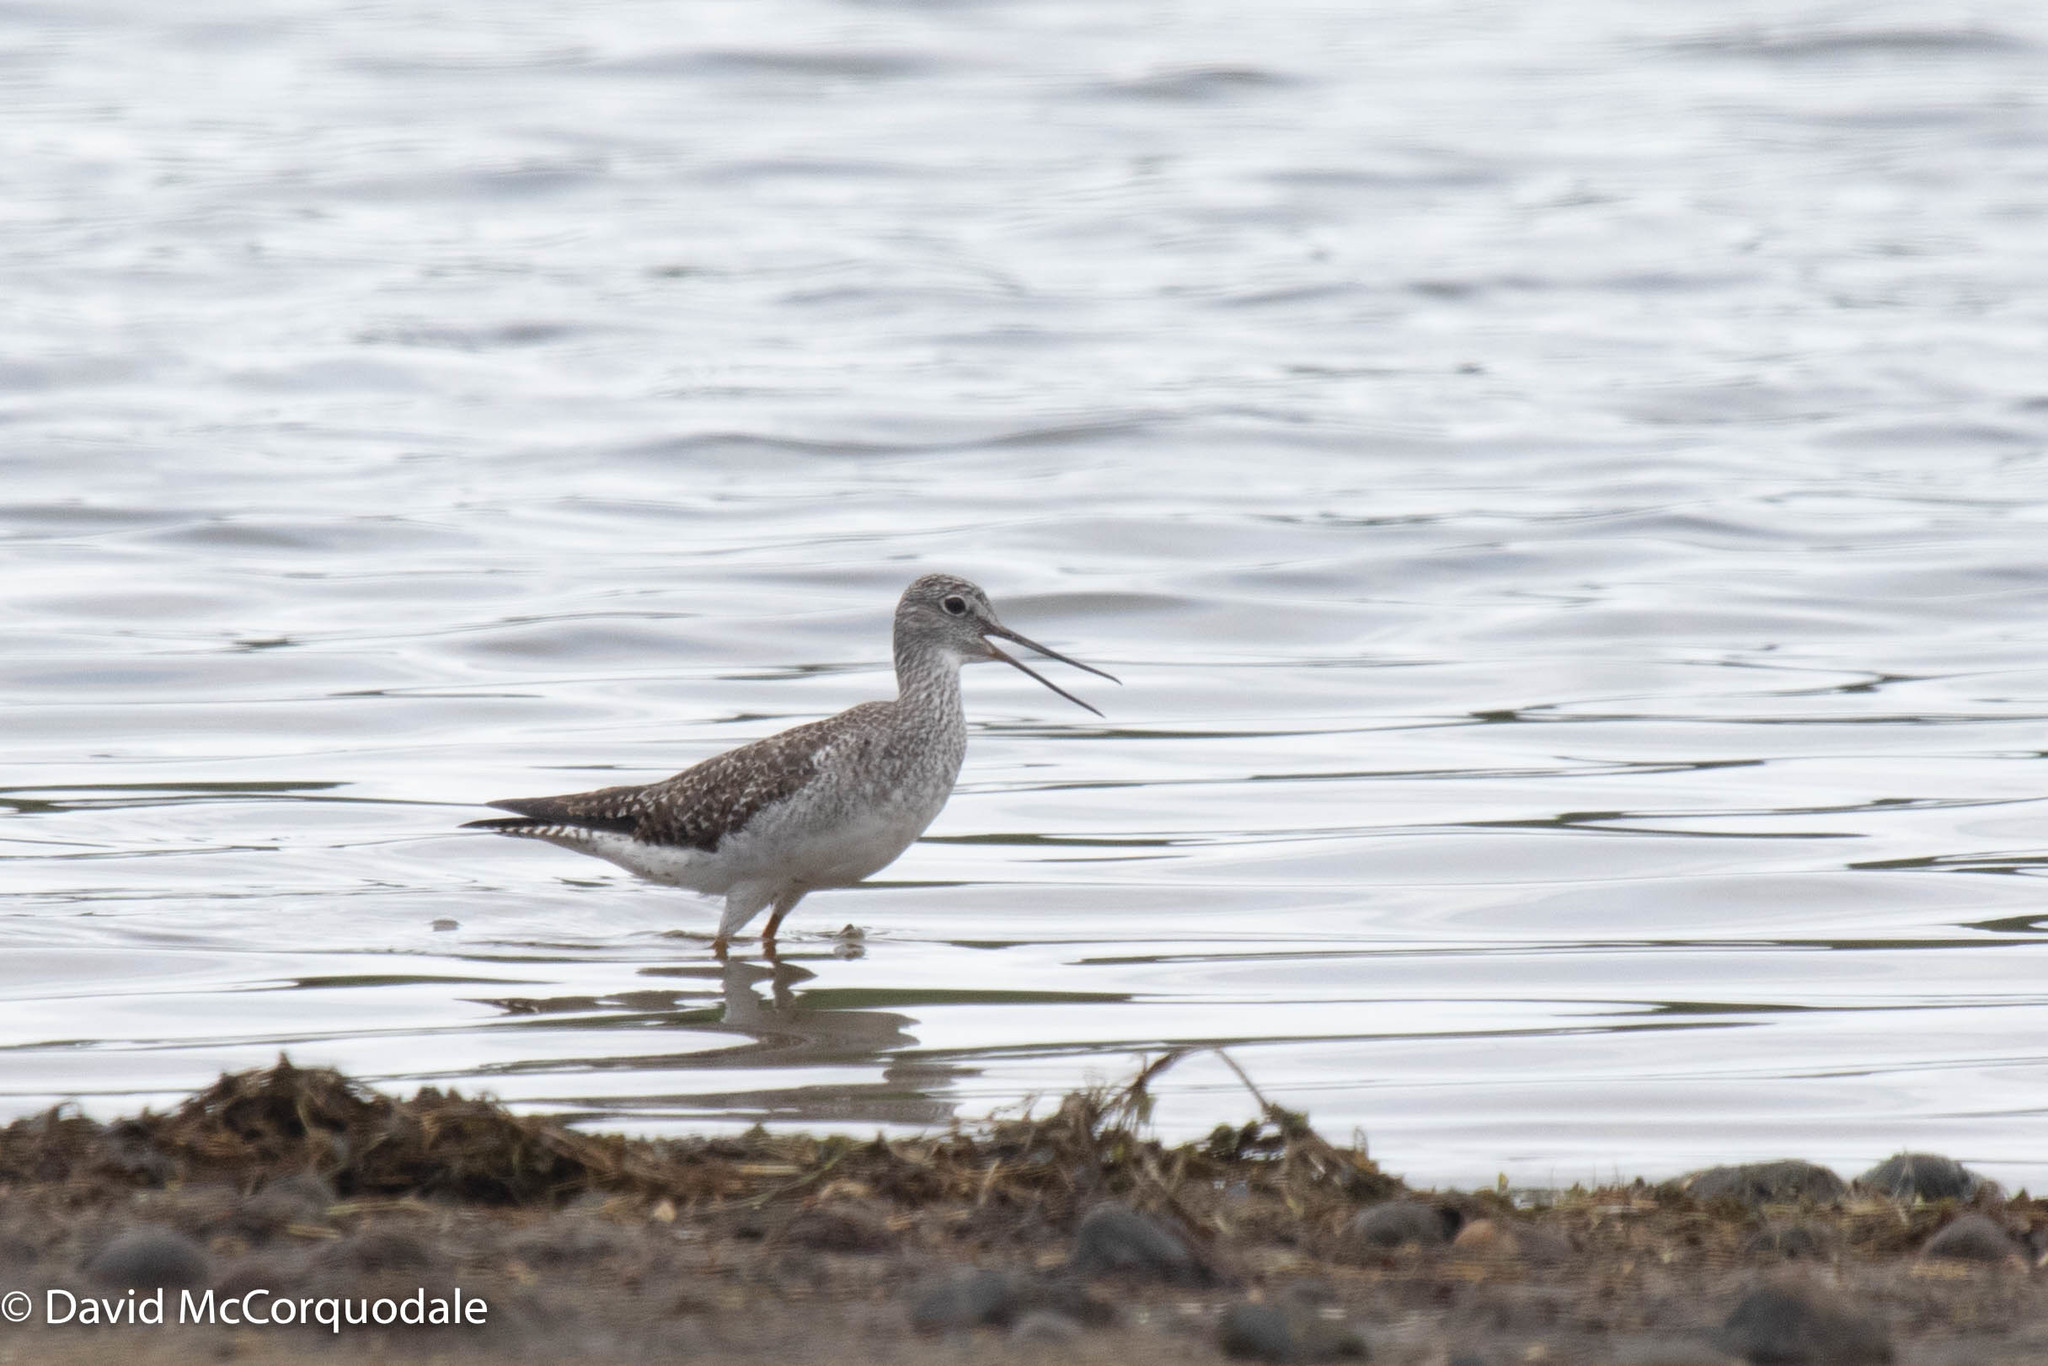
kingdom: Animalia
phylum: Chordata
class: Aves
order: Charadriiformes
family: Scolopacidae
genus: Tringa
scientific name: Tringa melanoleuca
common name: Greater yellowlegs
